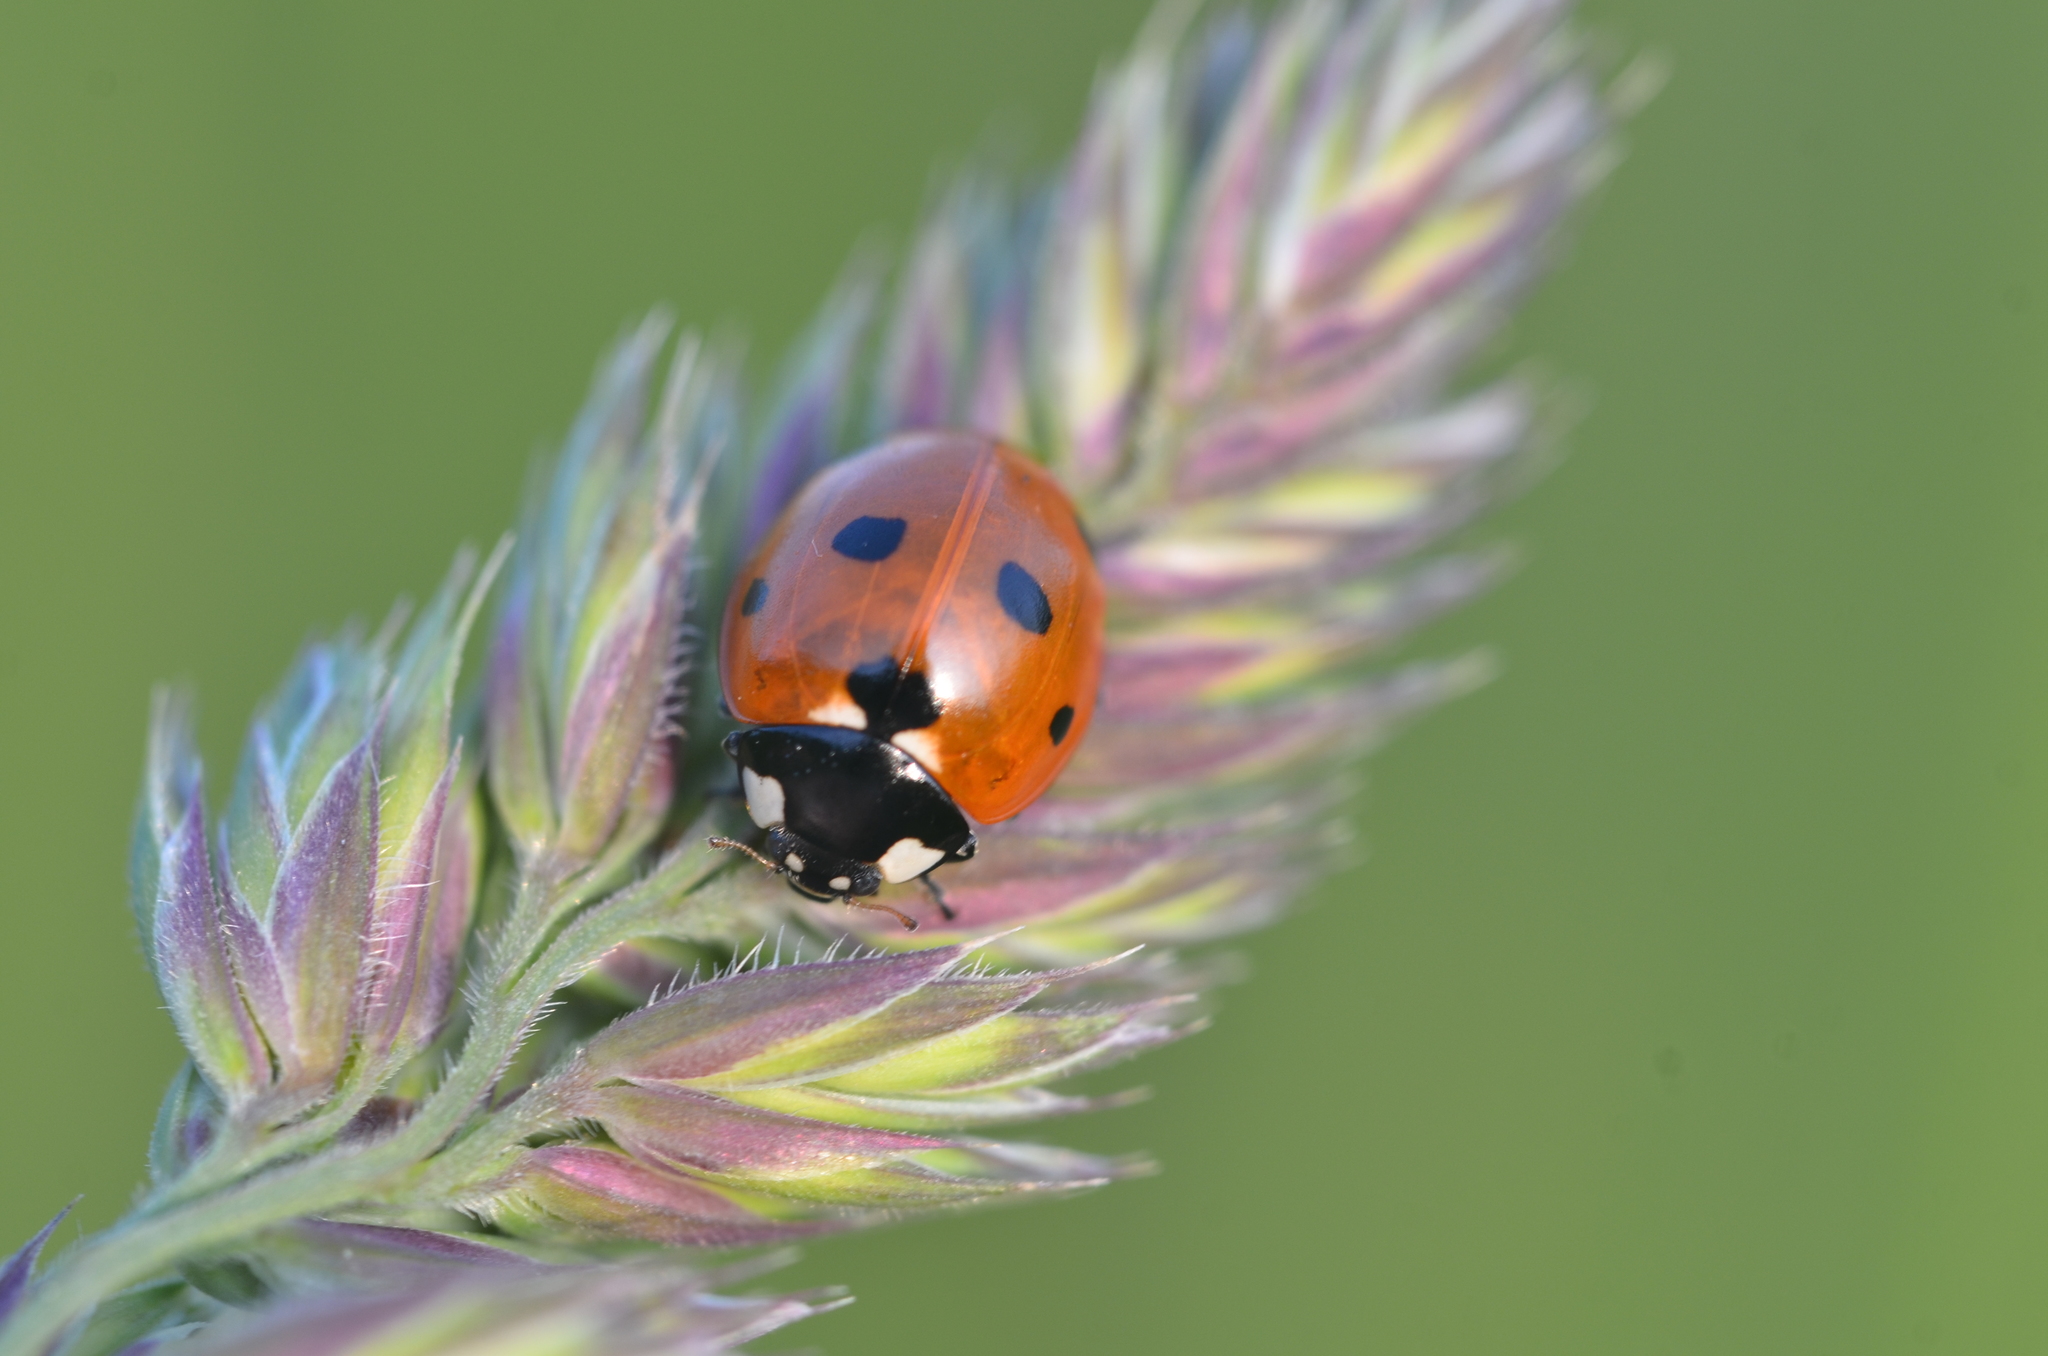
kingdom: Animalia
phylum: Arthropoda
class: Insecta
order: Coleoptera
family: Coccinellidae
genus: Coccinella
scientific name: Coccinella septempunctata
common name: Sevenspotted lady beetle
